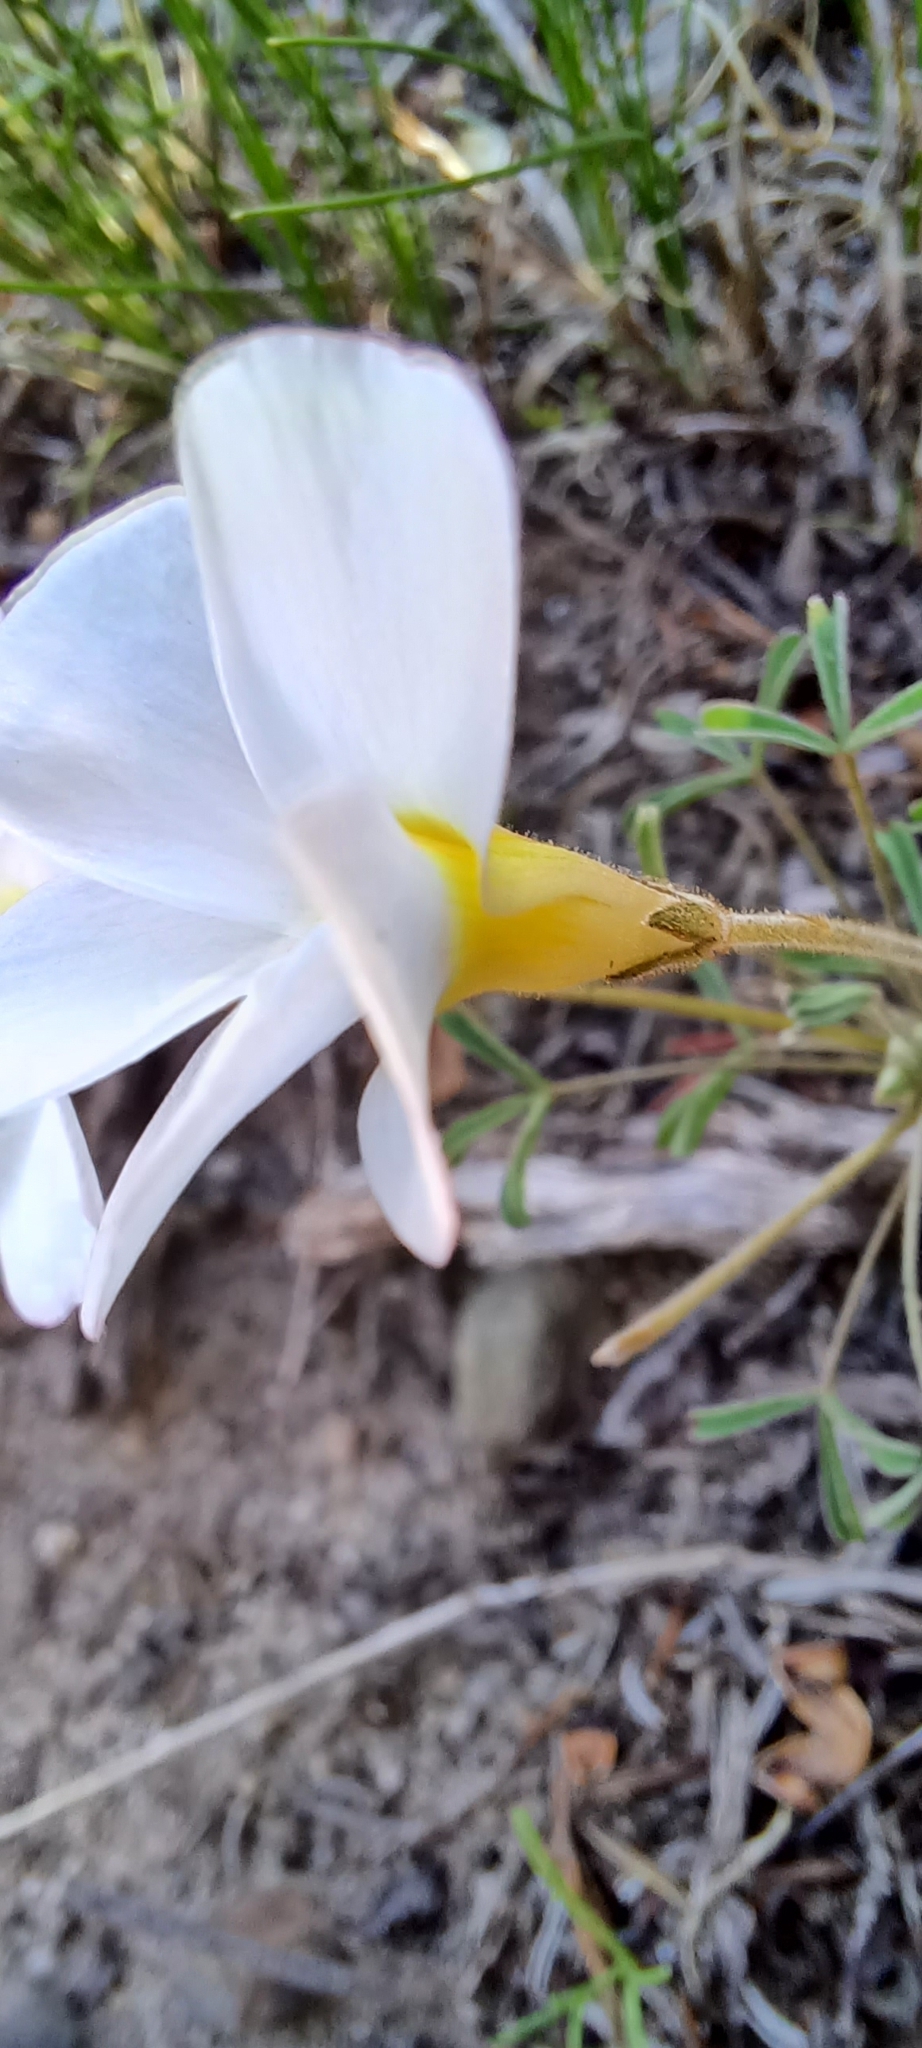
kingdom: Plantae
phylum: Tracheophyta
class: Magnoliopsida
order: Oxalidales
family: Oxalidaceae
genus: Oxalis
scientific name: Oxalis ciliaris
